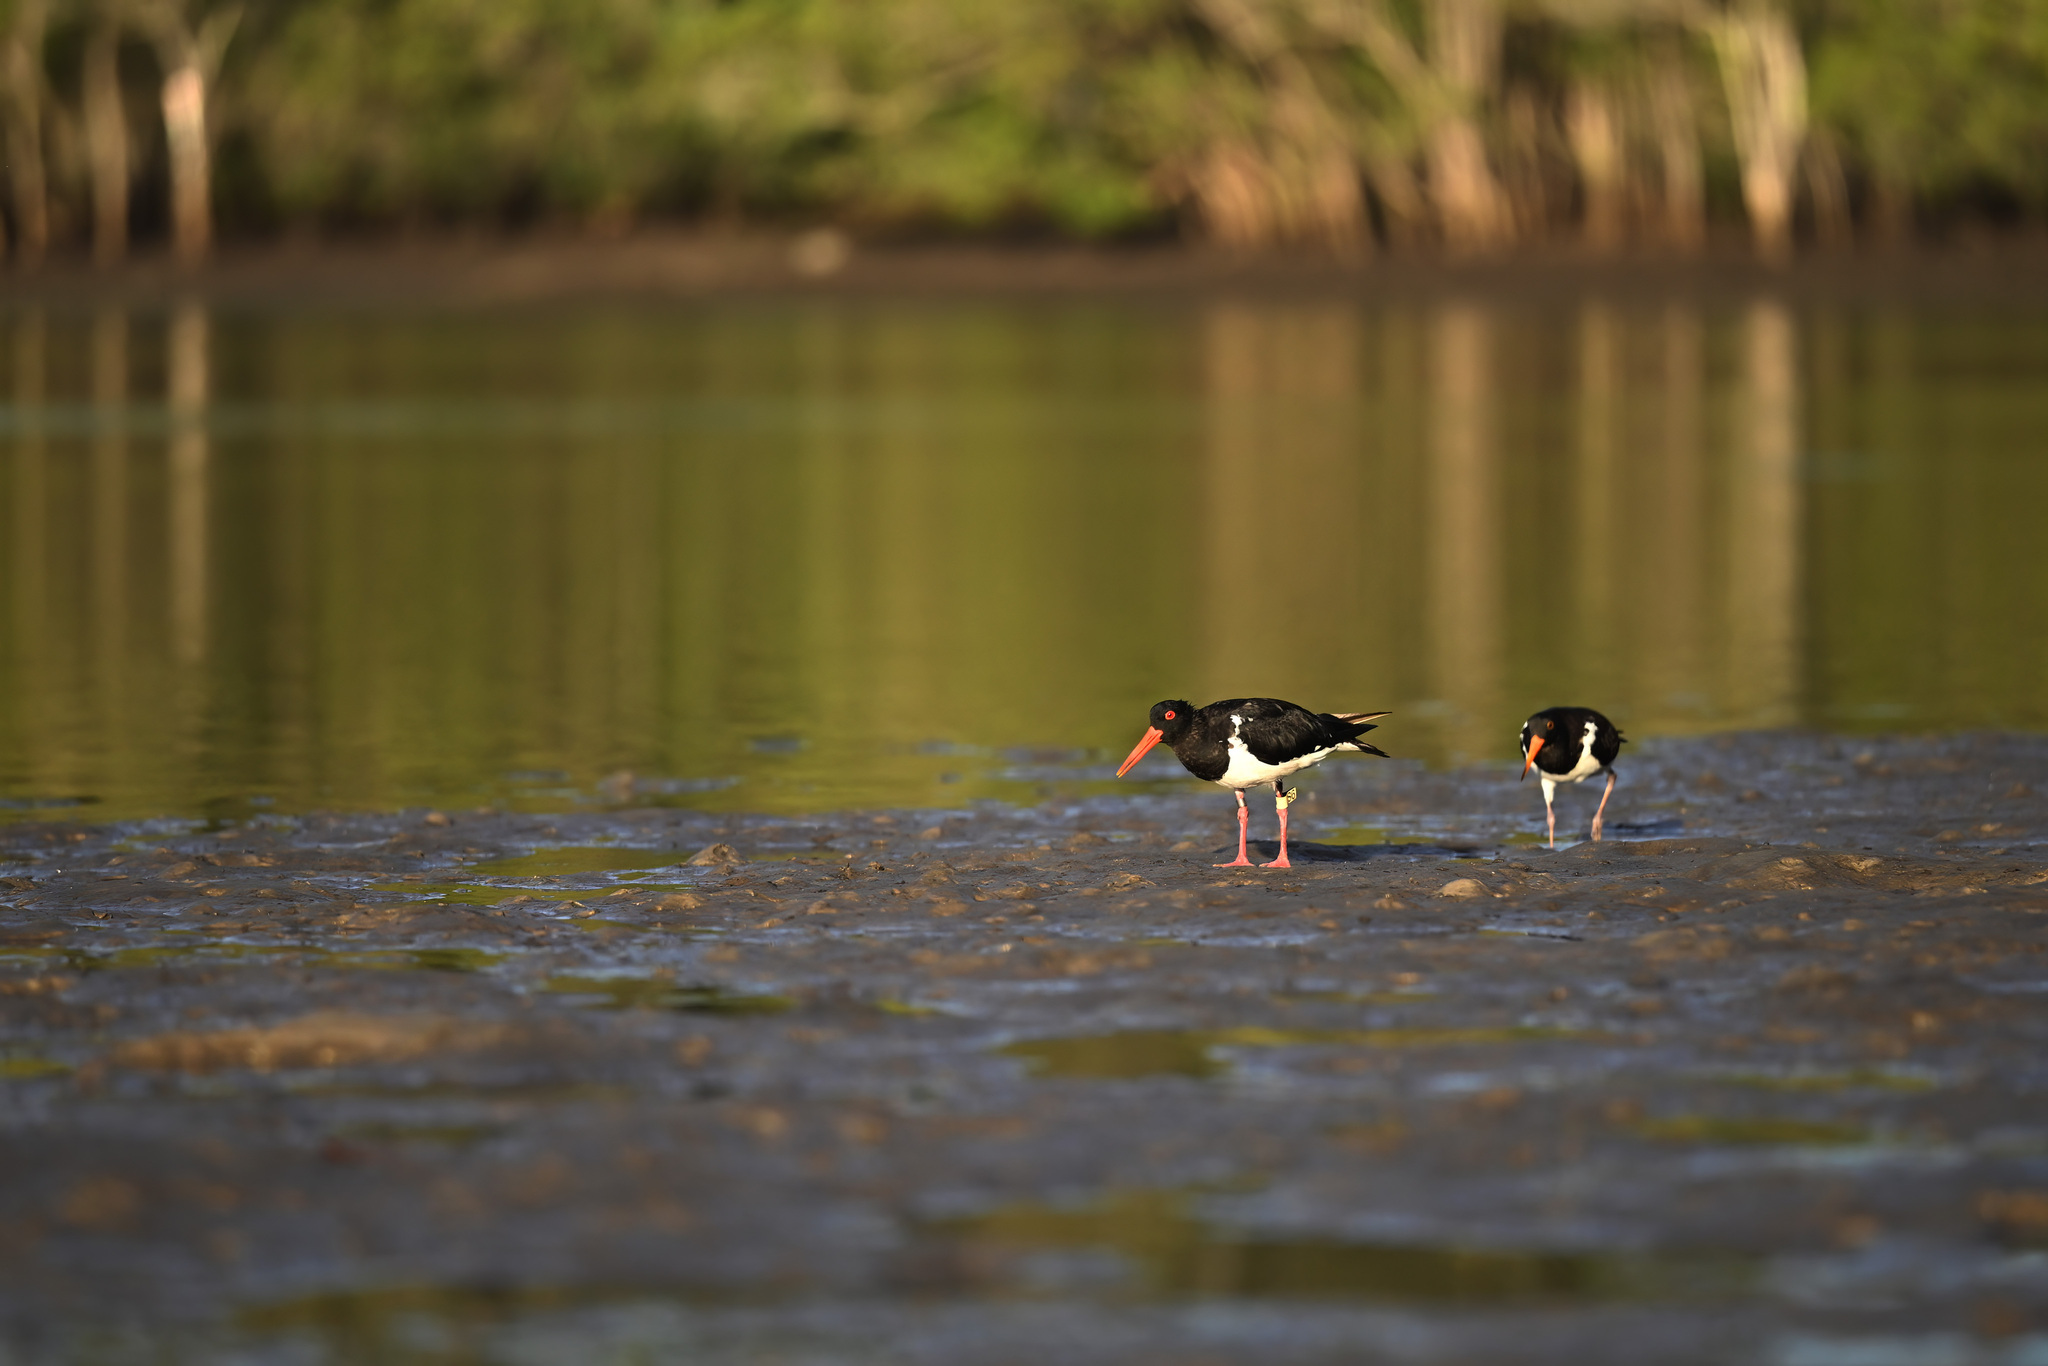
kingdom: Animalia
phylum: Chordata
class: Aves
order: Charadriiformes
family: Haematopodidae
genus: Haematopus
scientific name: Haematopus longirostris
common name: Pied oystercatcher
